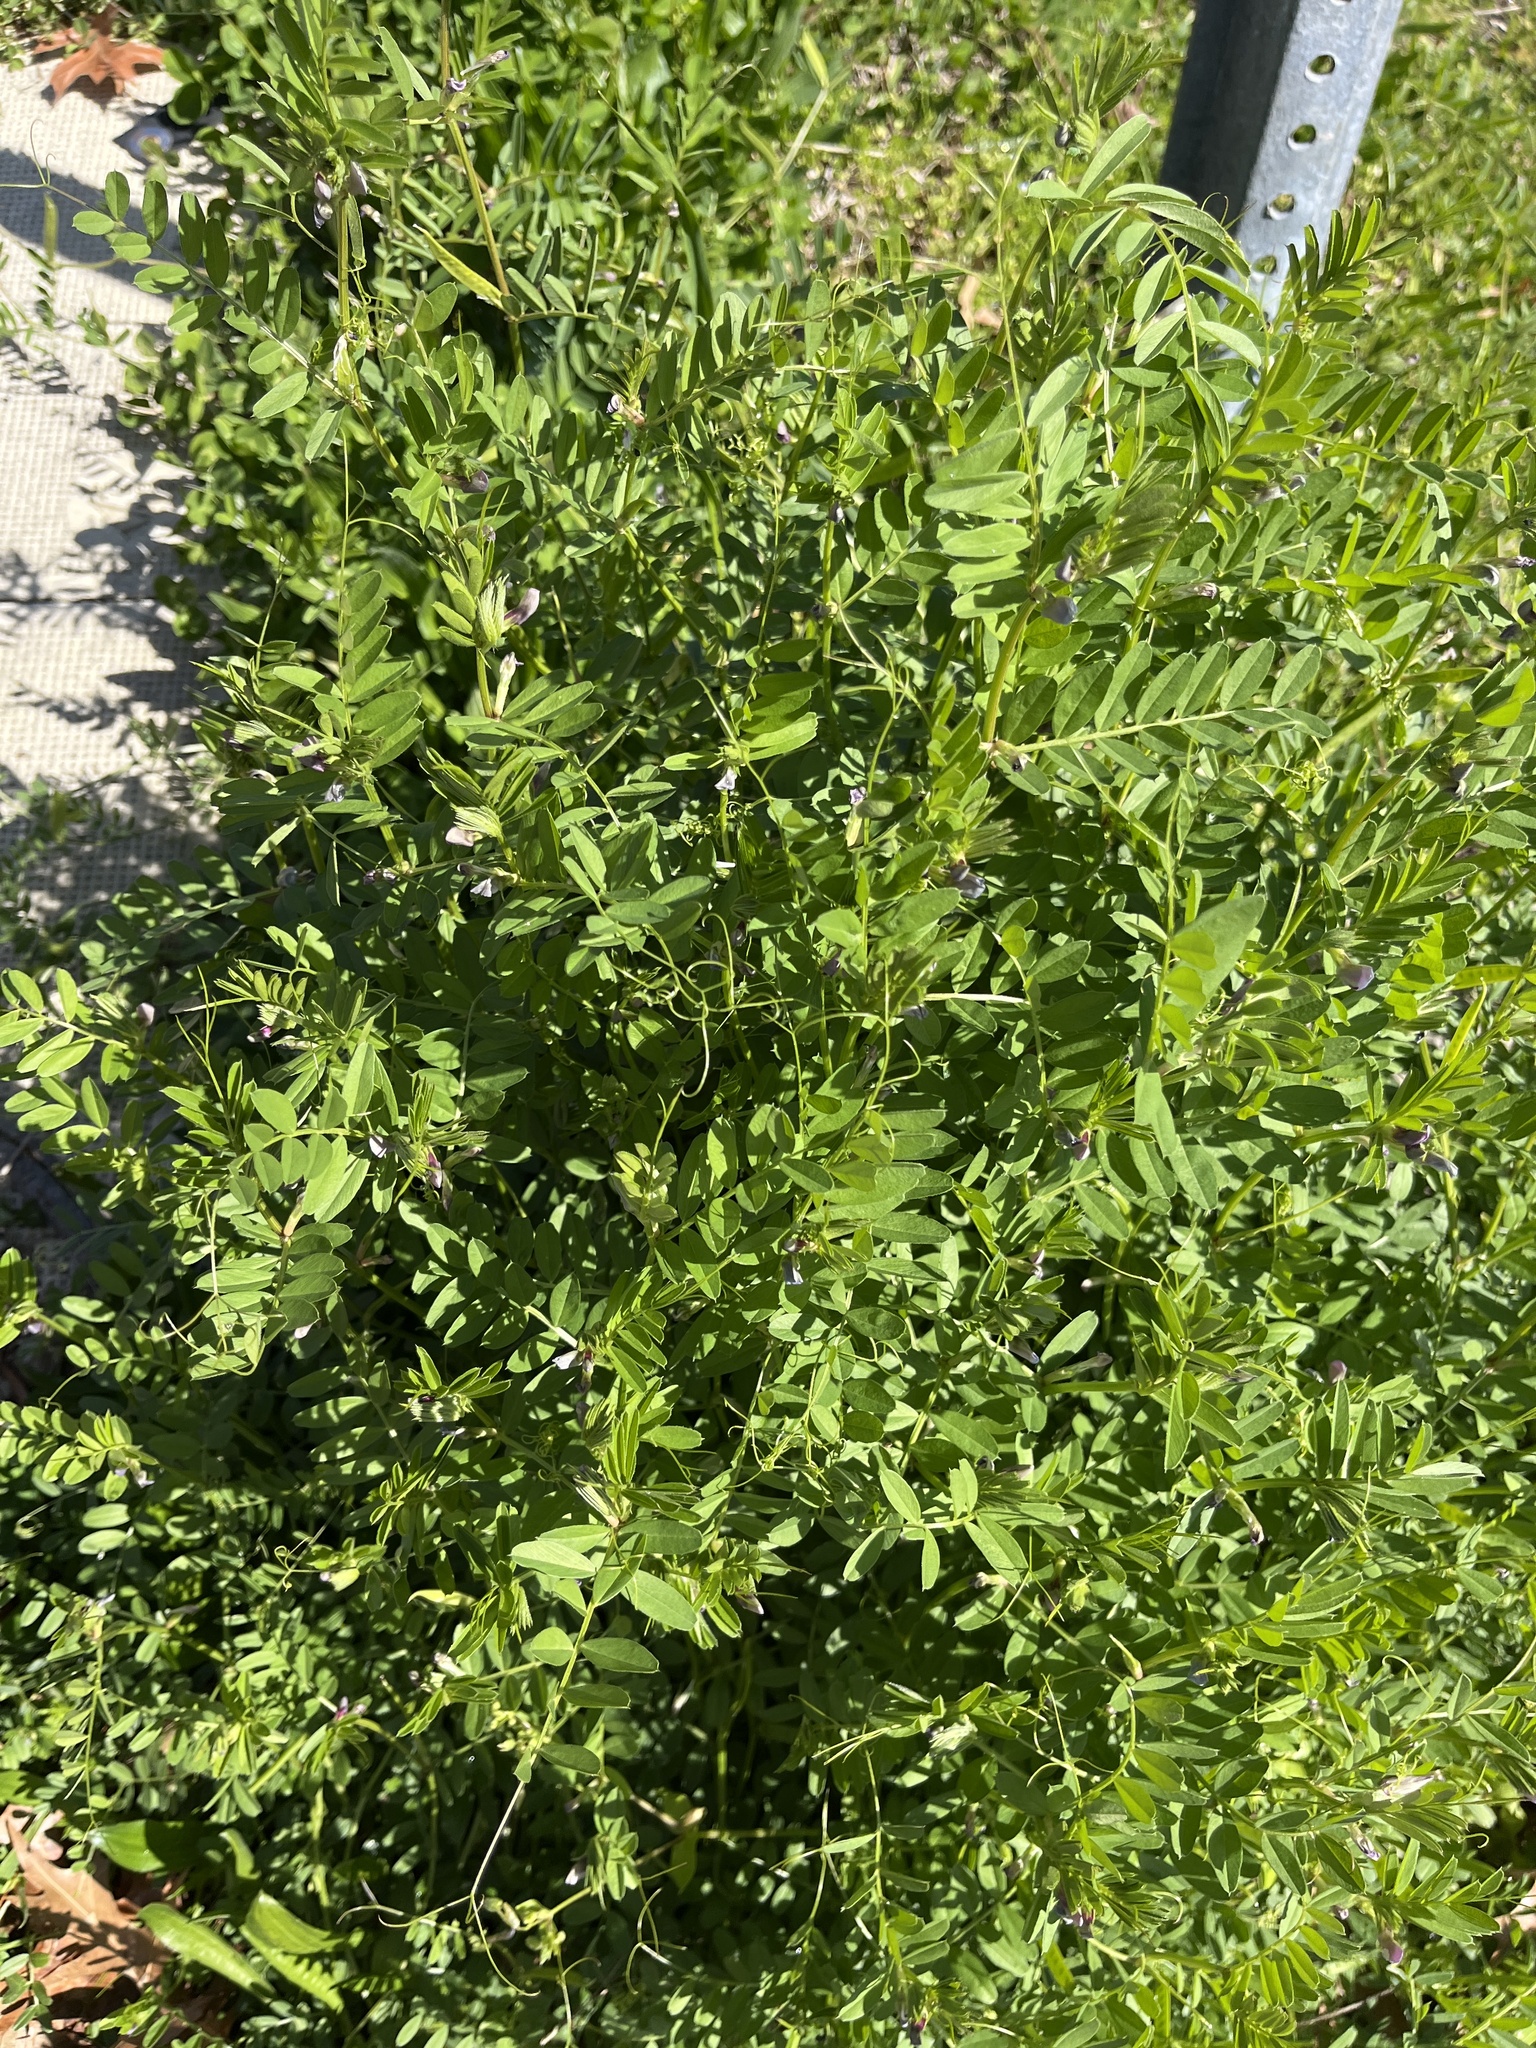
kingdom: Plantae
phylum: Tracheophyta
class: Magnoliopsida
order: Fabales
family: Fabaceae
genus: Vicia
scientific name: Vicia sativa
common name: Garden vetch
